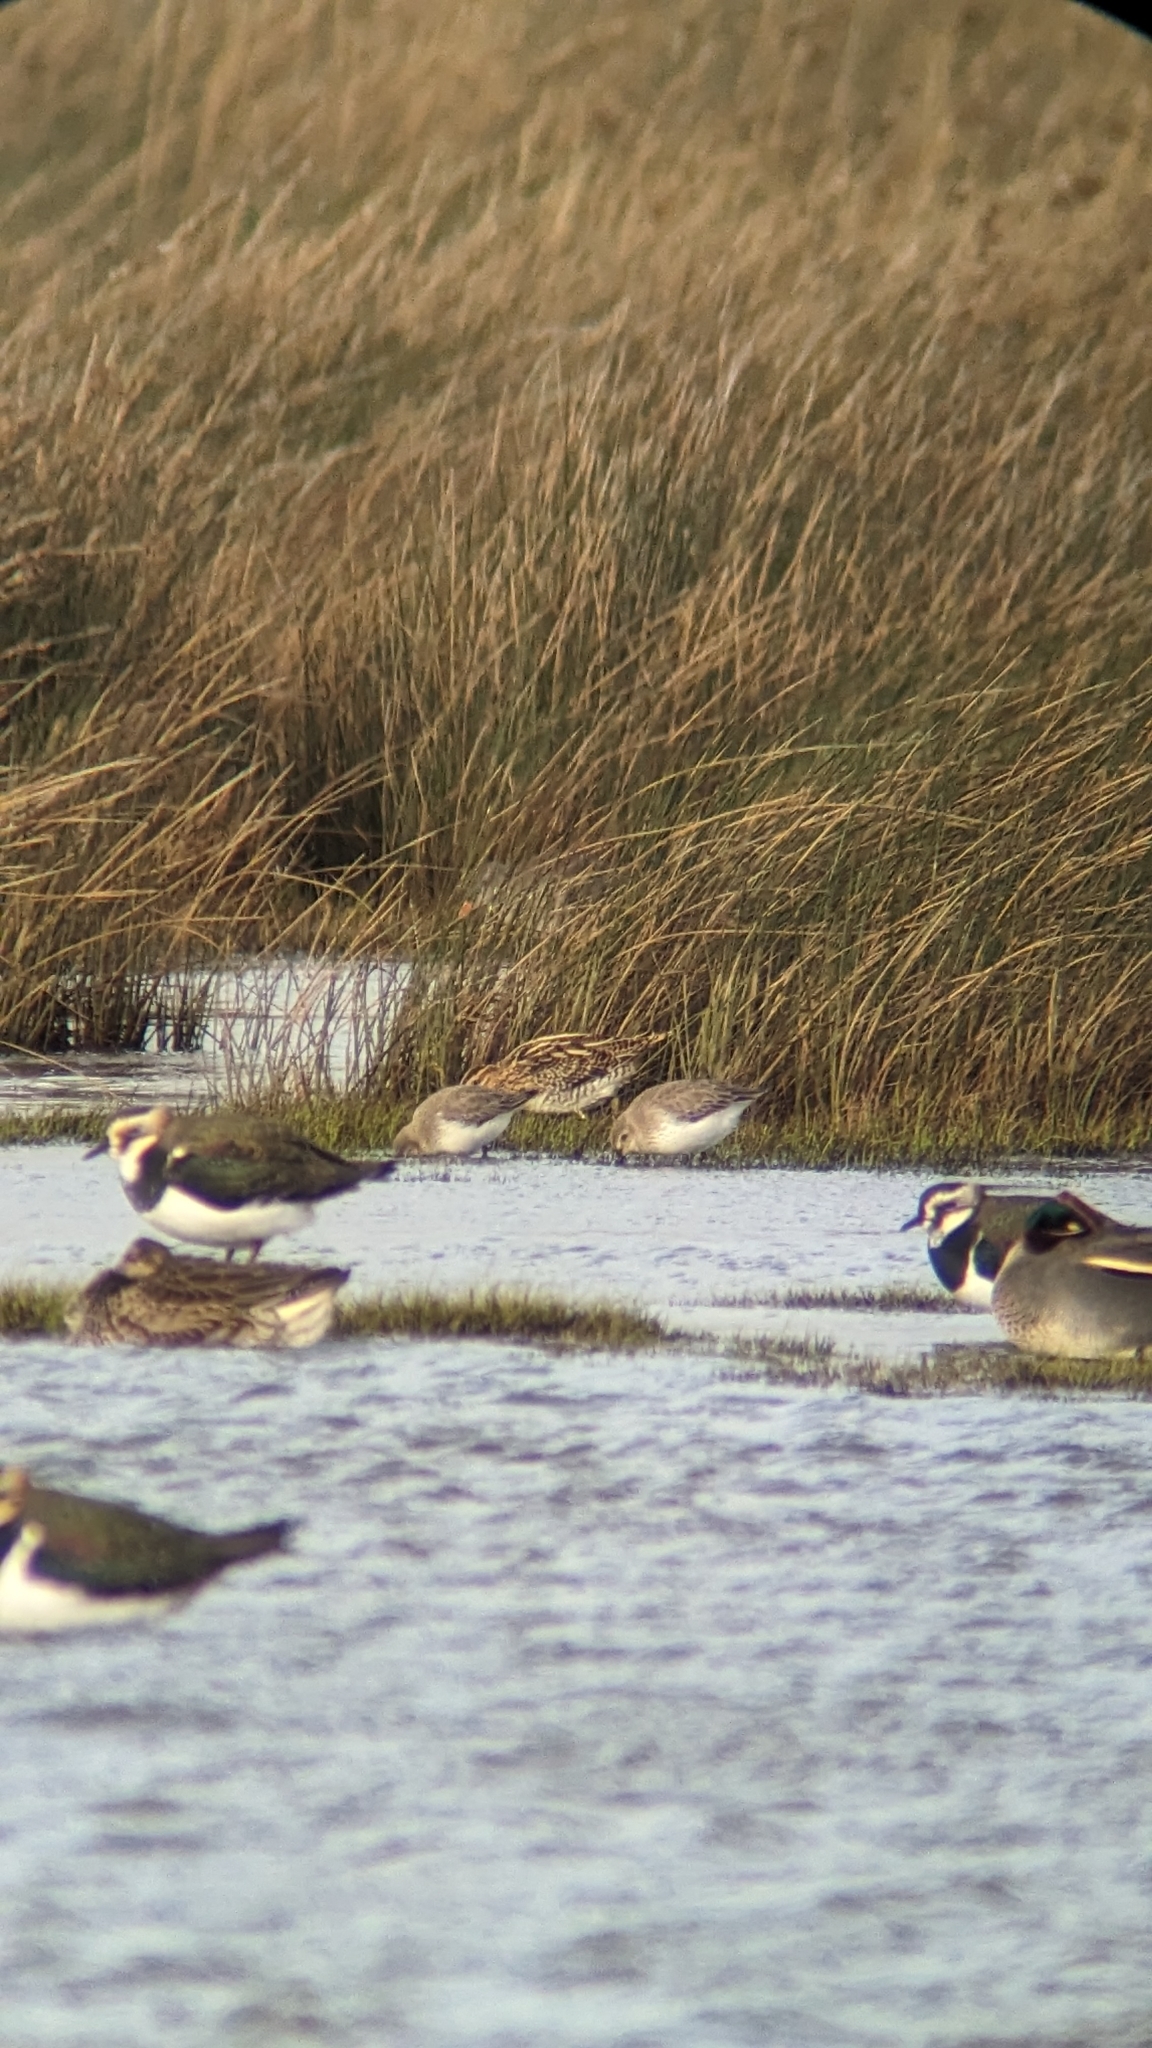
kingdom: Animalia
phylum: Chordata
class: Aves
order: Charadriiformes
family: Charadriidae
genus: Vanellus
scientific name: Vanellus vanellus
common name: Northern lapwing
